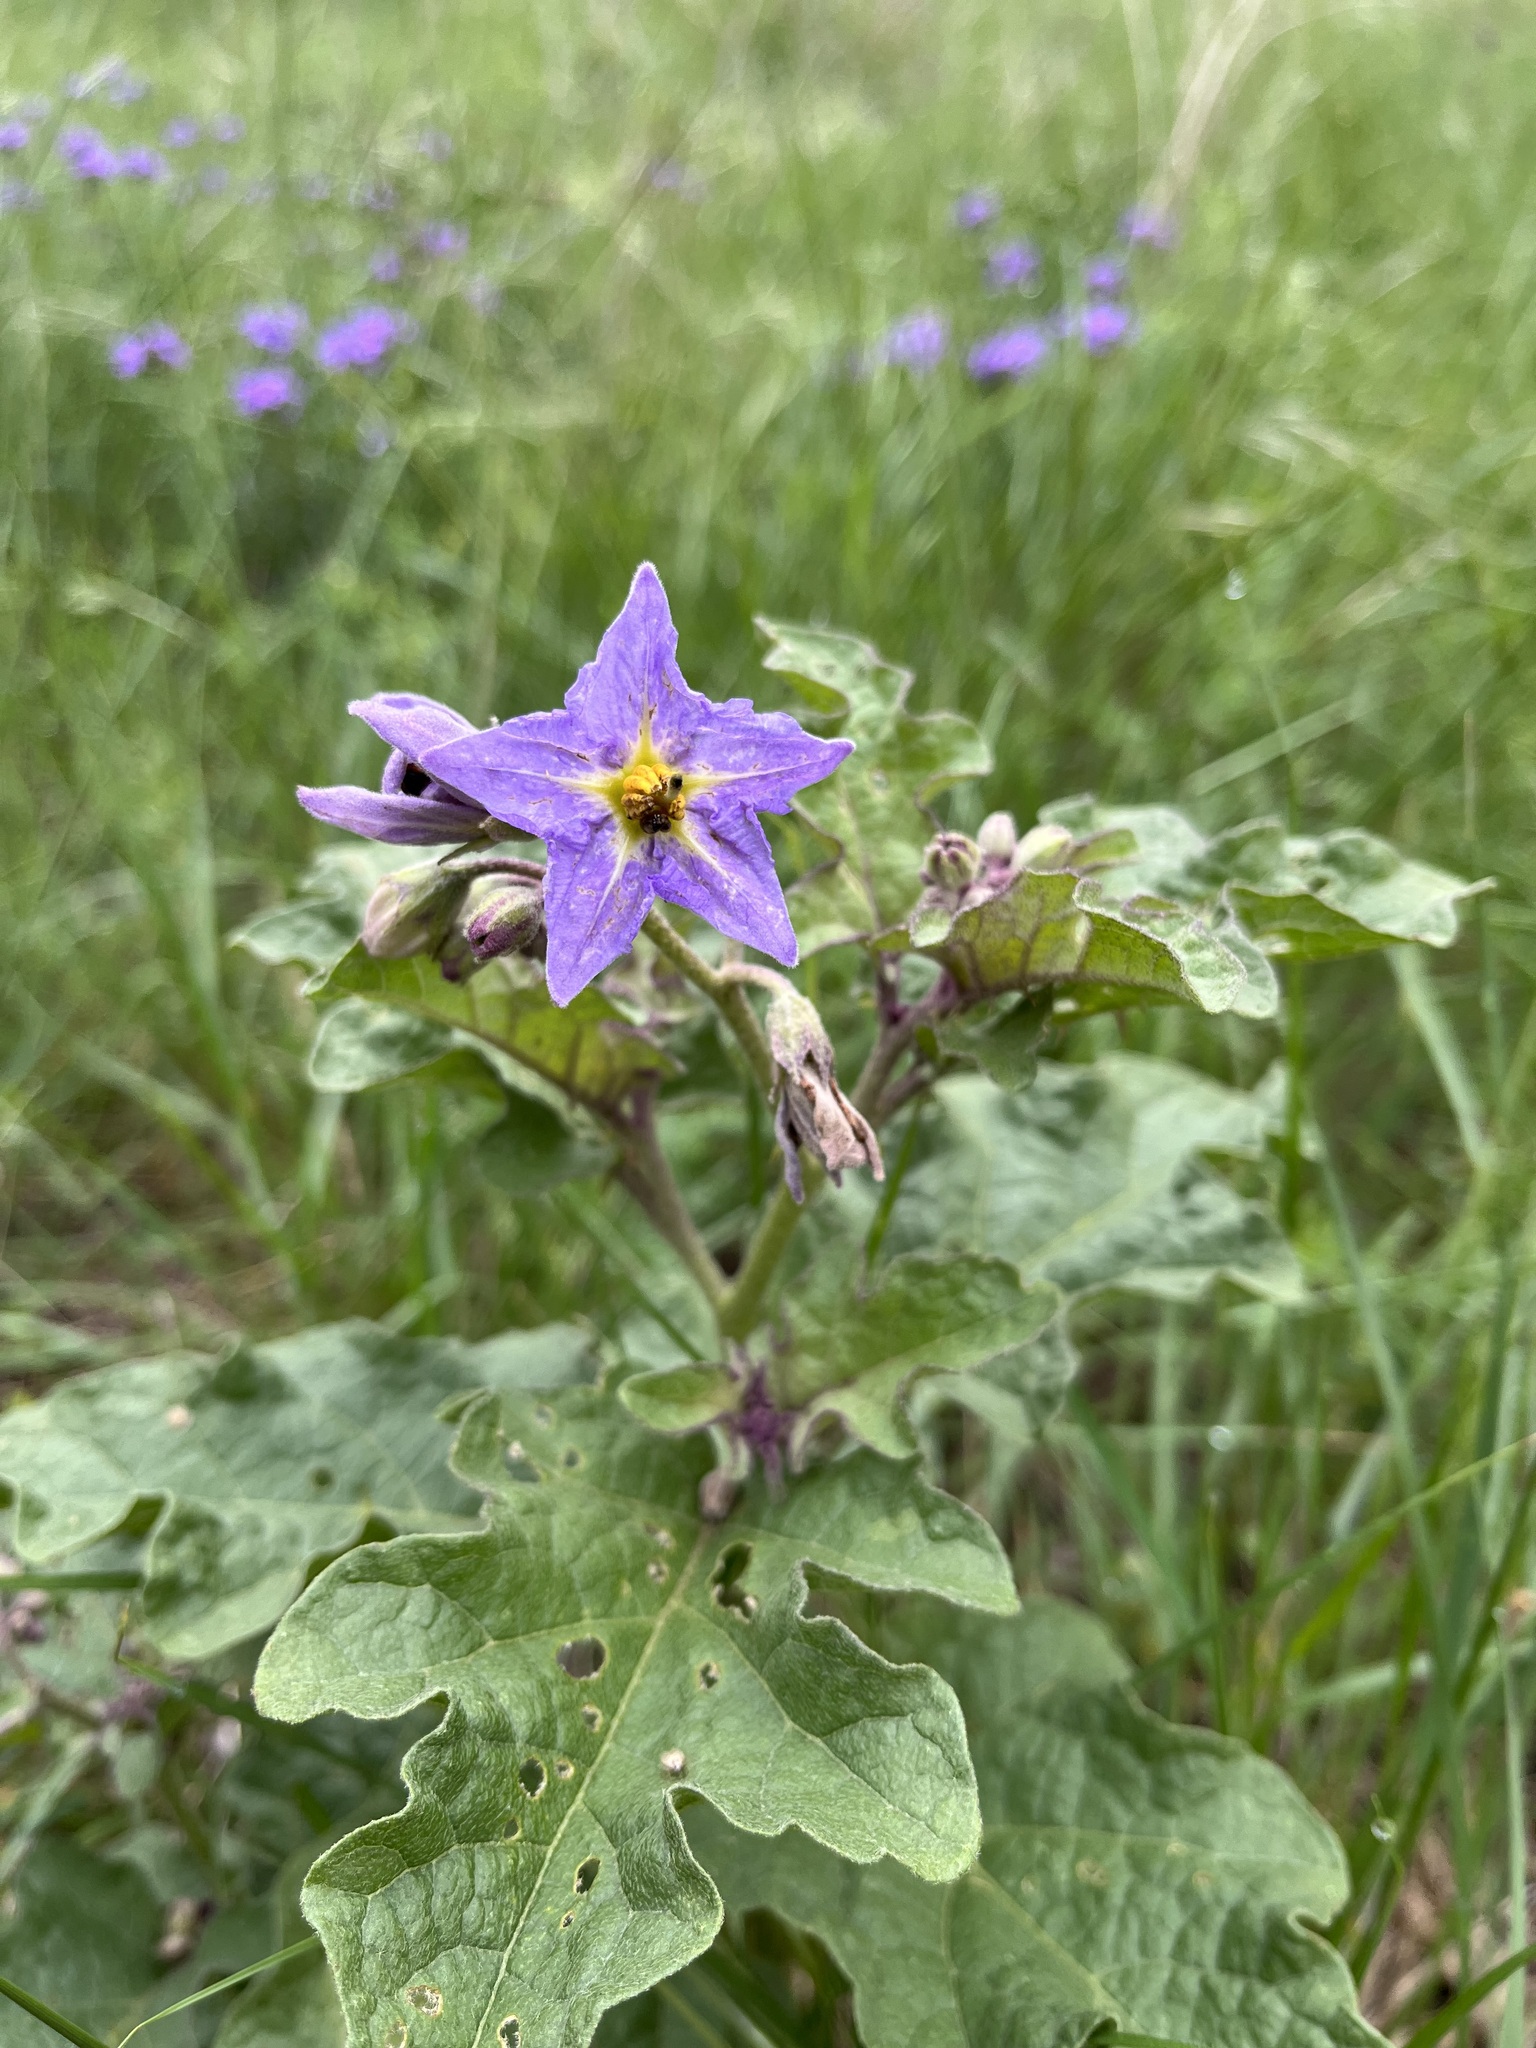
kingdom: Plantae
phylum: Tracheophyta
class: Magnoliopsida
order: Solanales
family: Solanaceae
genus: Solanum
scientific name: Solanum dimidiatum
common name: Carolina horse-nettle
